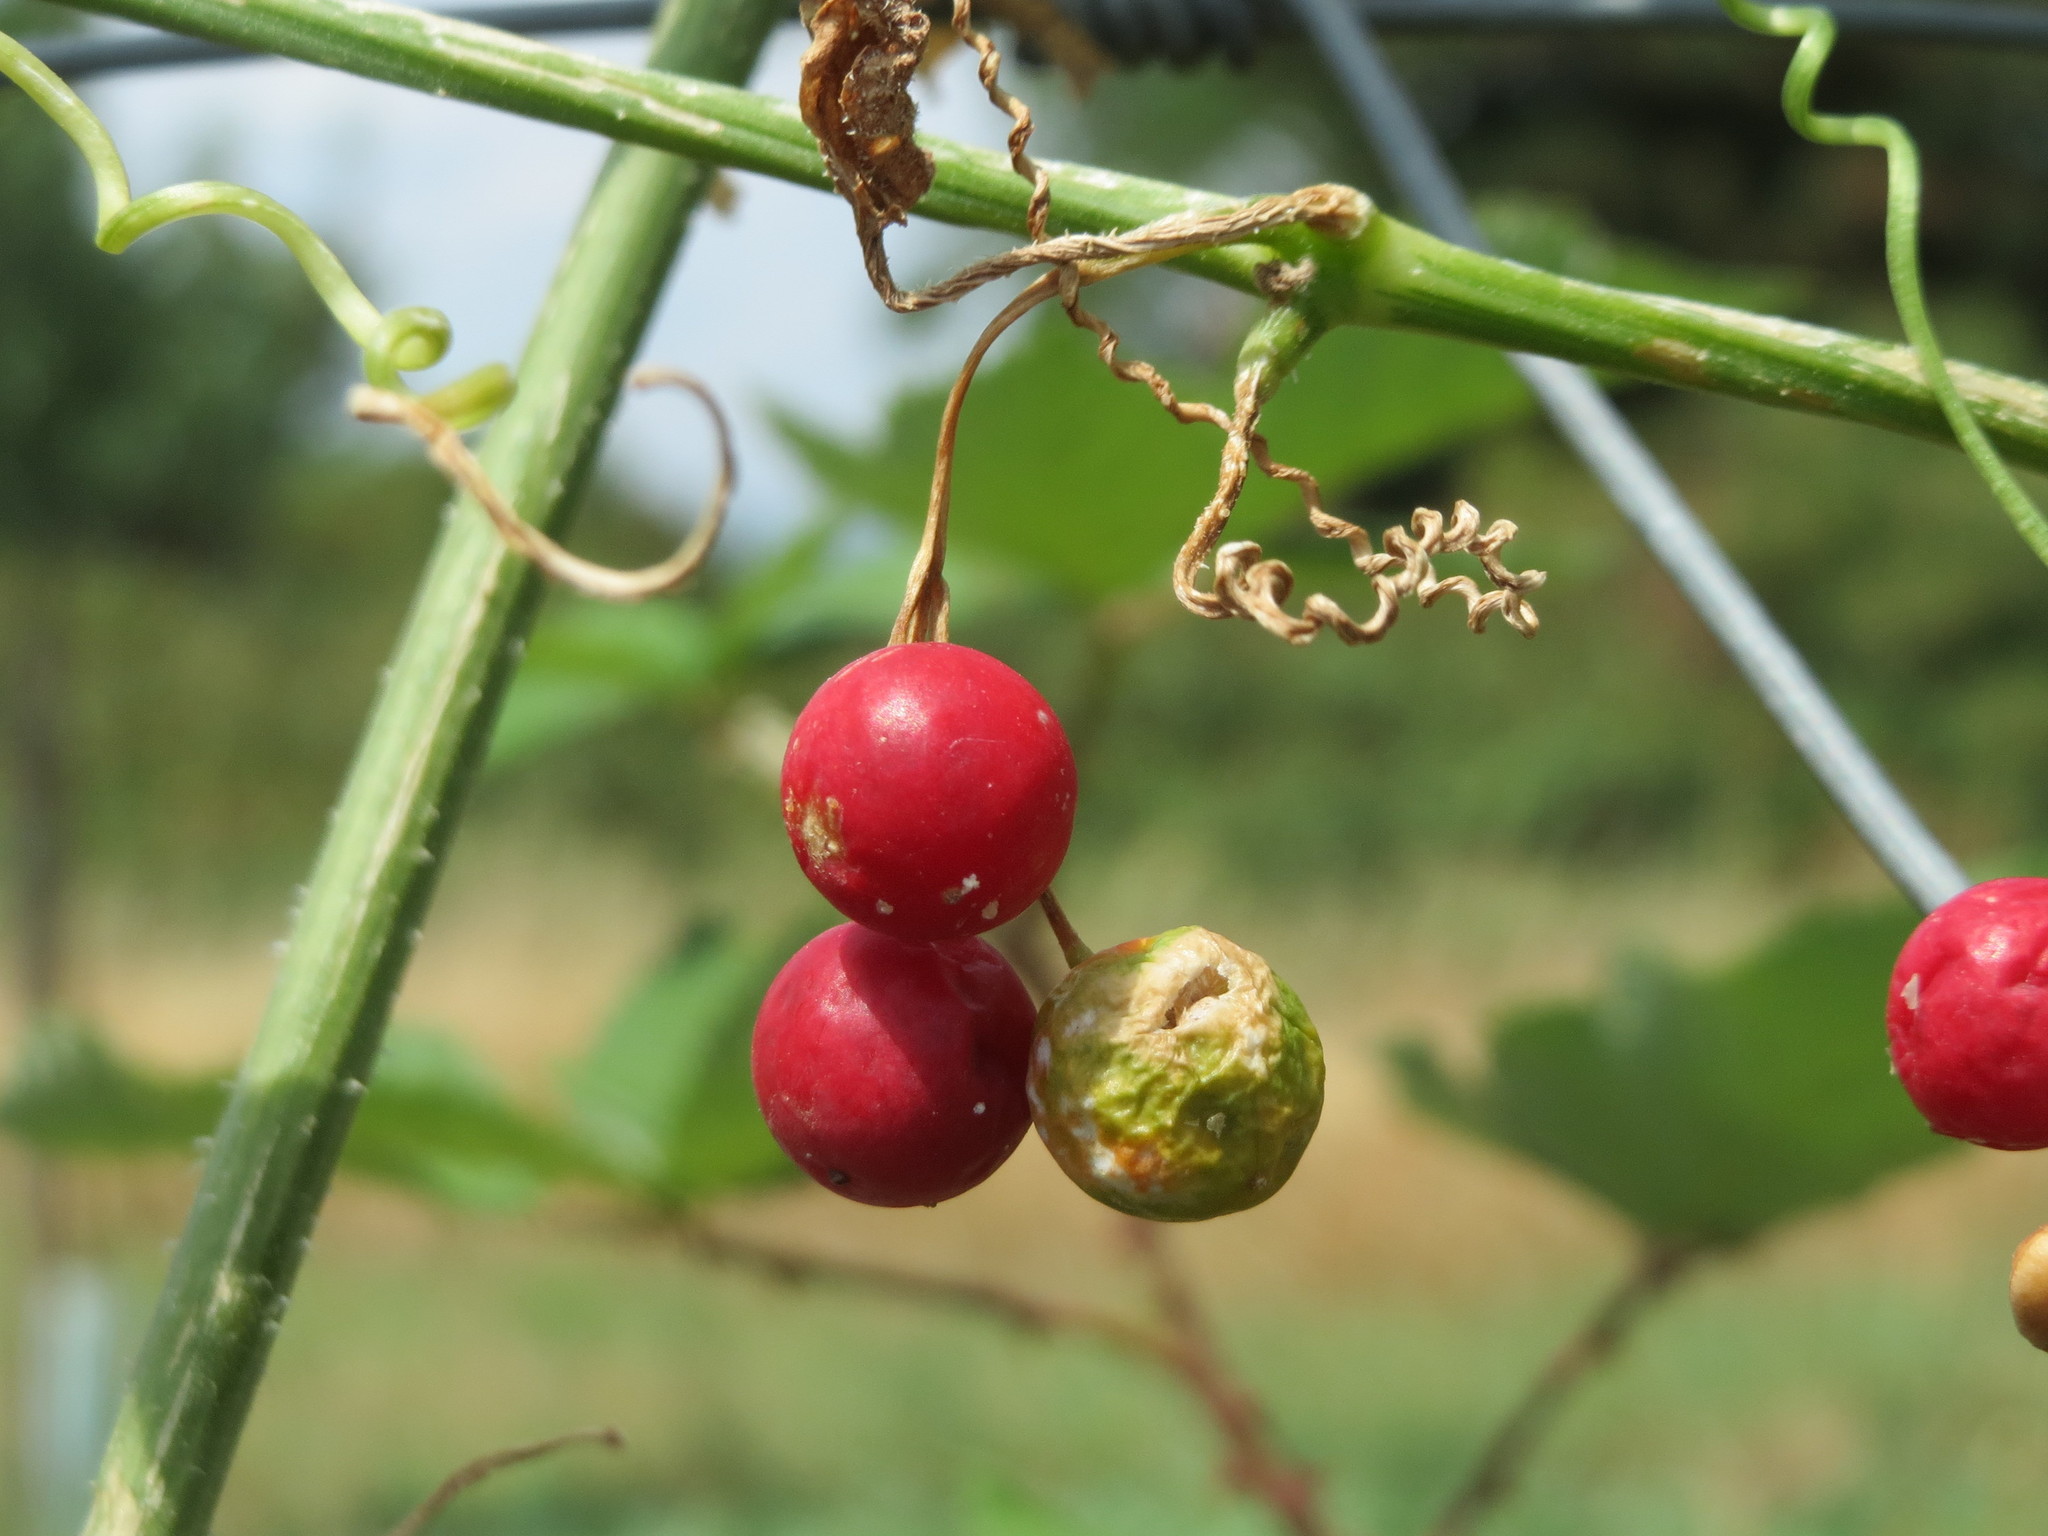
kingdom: Plantae
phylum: Tracheophyta
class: Magnoliopsida
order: Cucurbitales
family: Cucurbitaceae
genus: Bryonia
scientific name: Bryonia dioica
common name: White bryony
